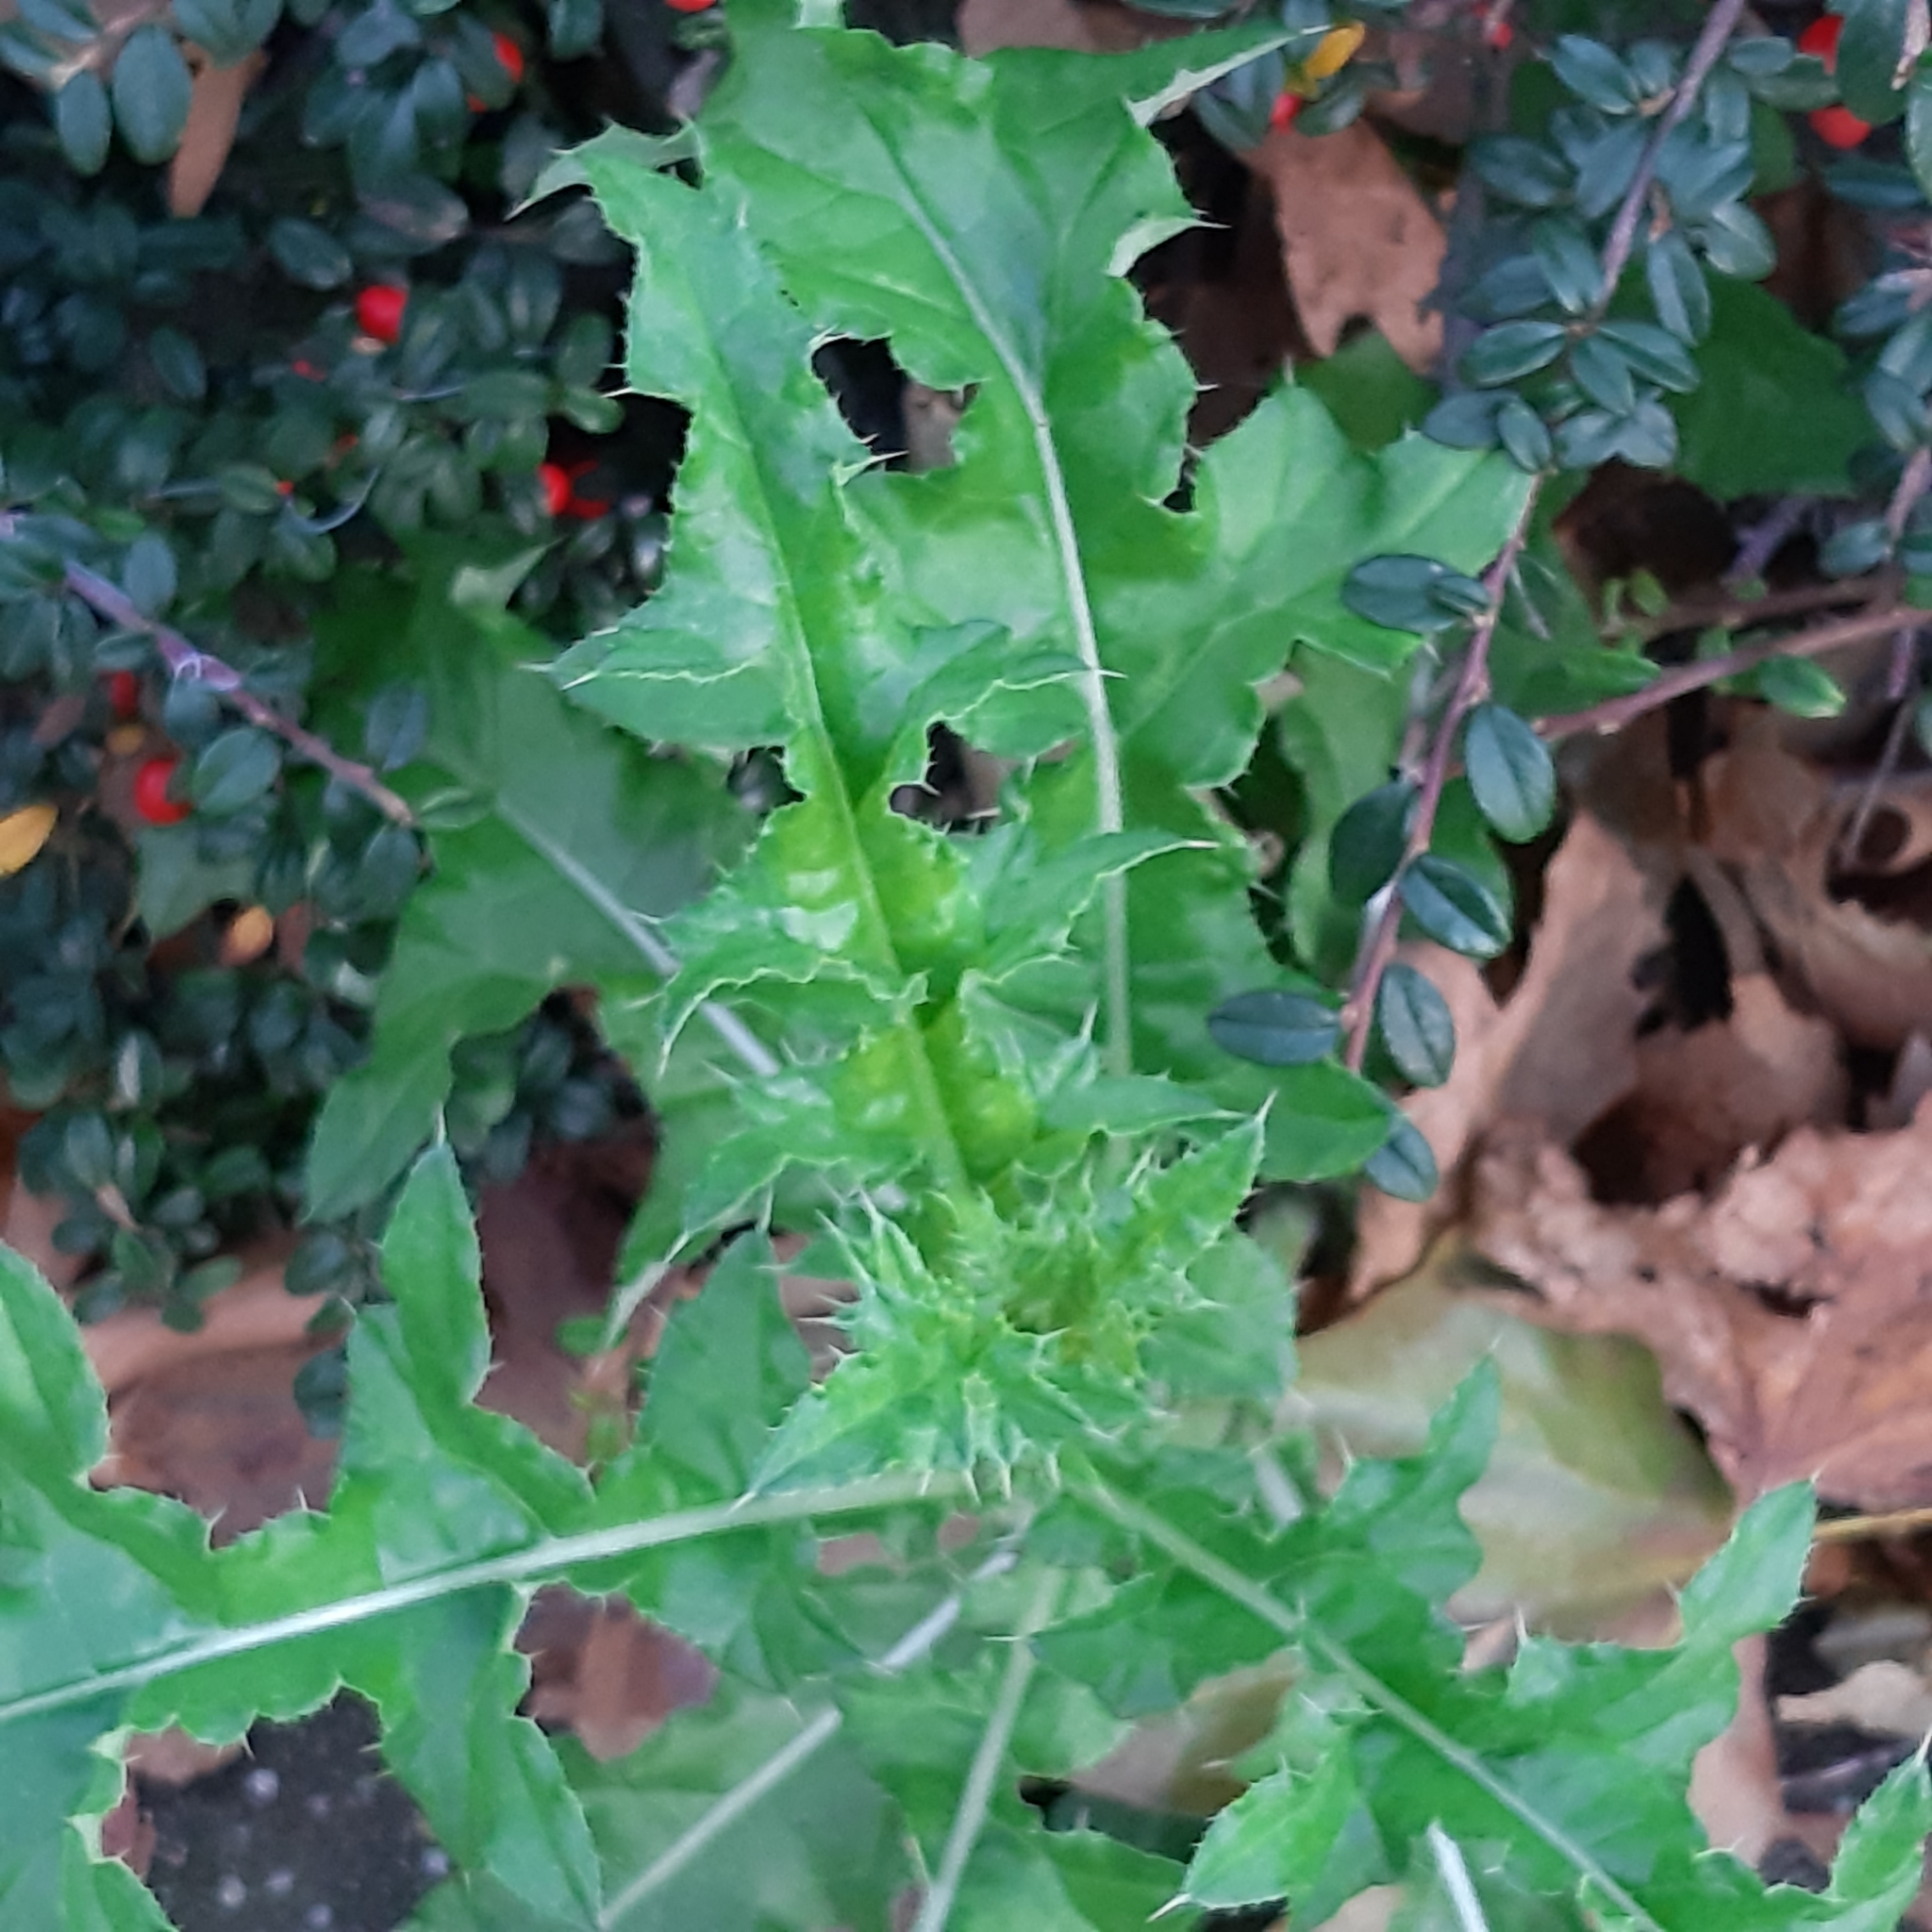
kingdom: Plantae
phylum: Tracheophyta
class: Magnoliopsida
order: Asterales
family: Asteraceae
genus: Cirsium
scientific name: Cirsium arvense
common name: Creeping thistle
